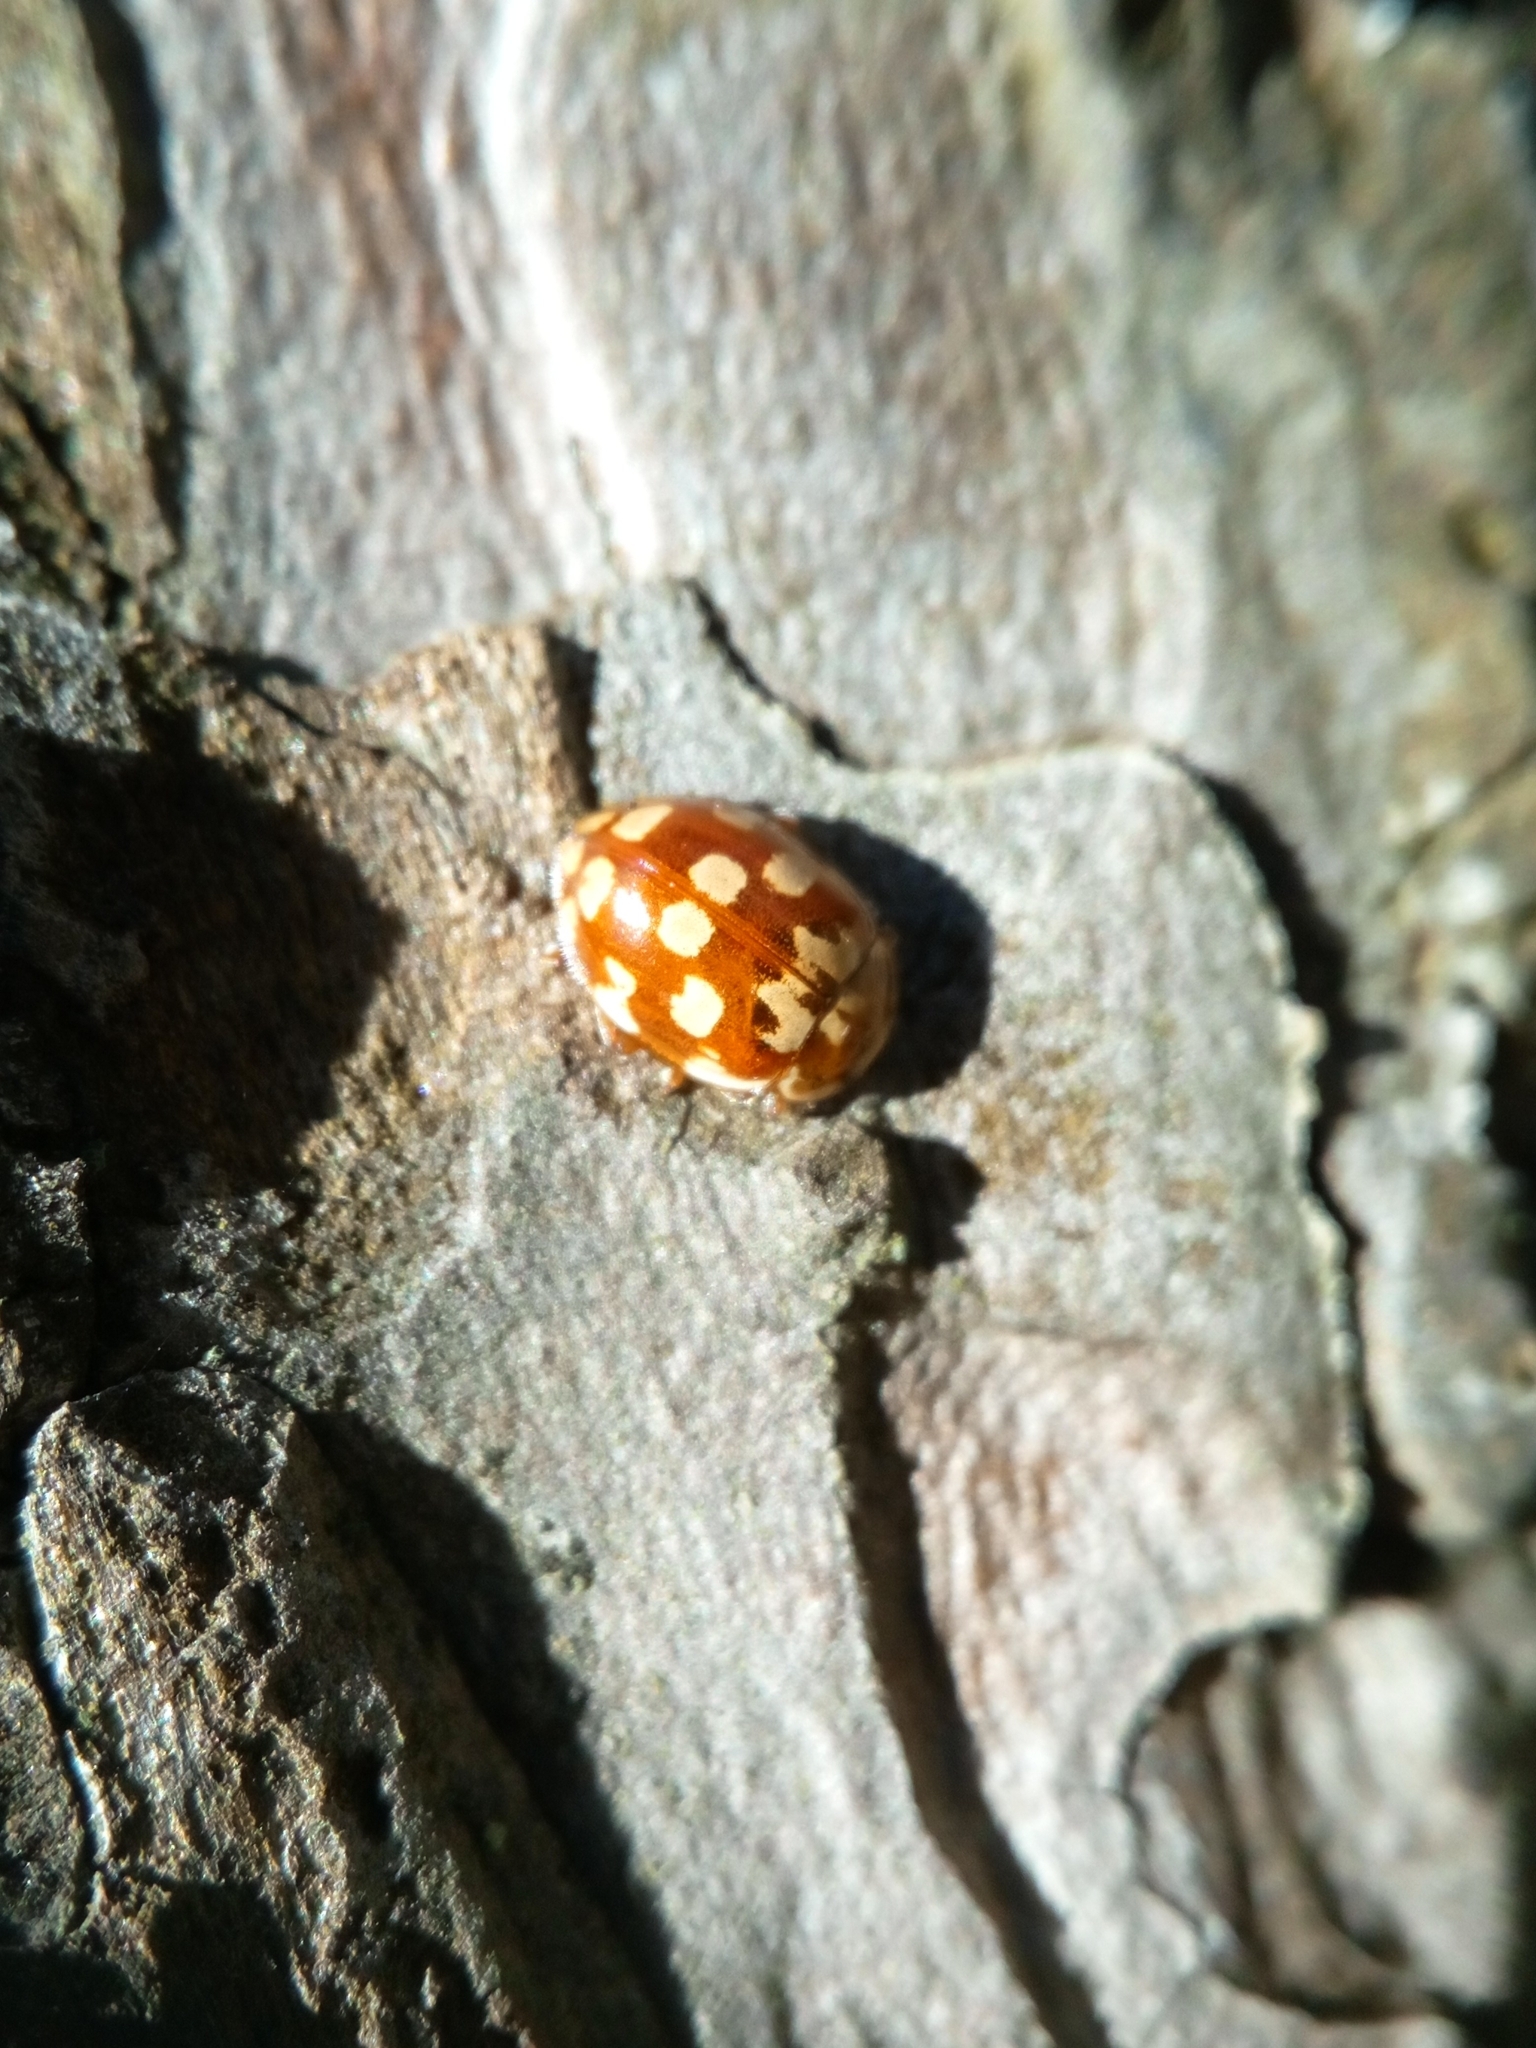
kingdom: Animalia
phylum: Arthropoda
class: Insecta
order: Coleoptera
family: Coccinellidae
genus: Myrrha
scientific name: Myrrha octodecimguttata
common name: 18-spot ladybird
